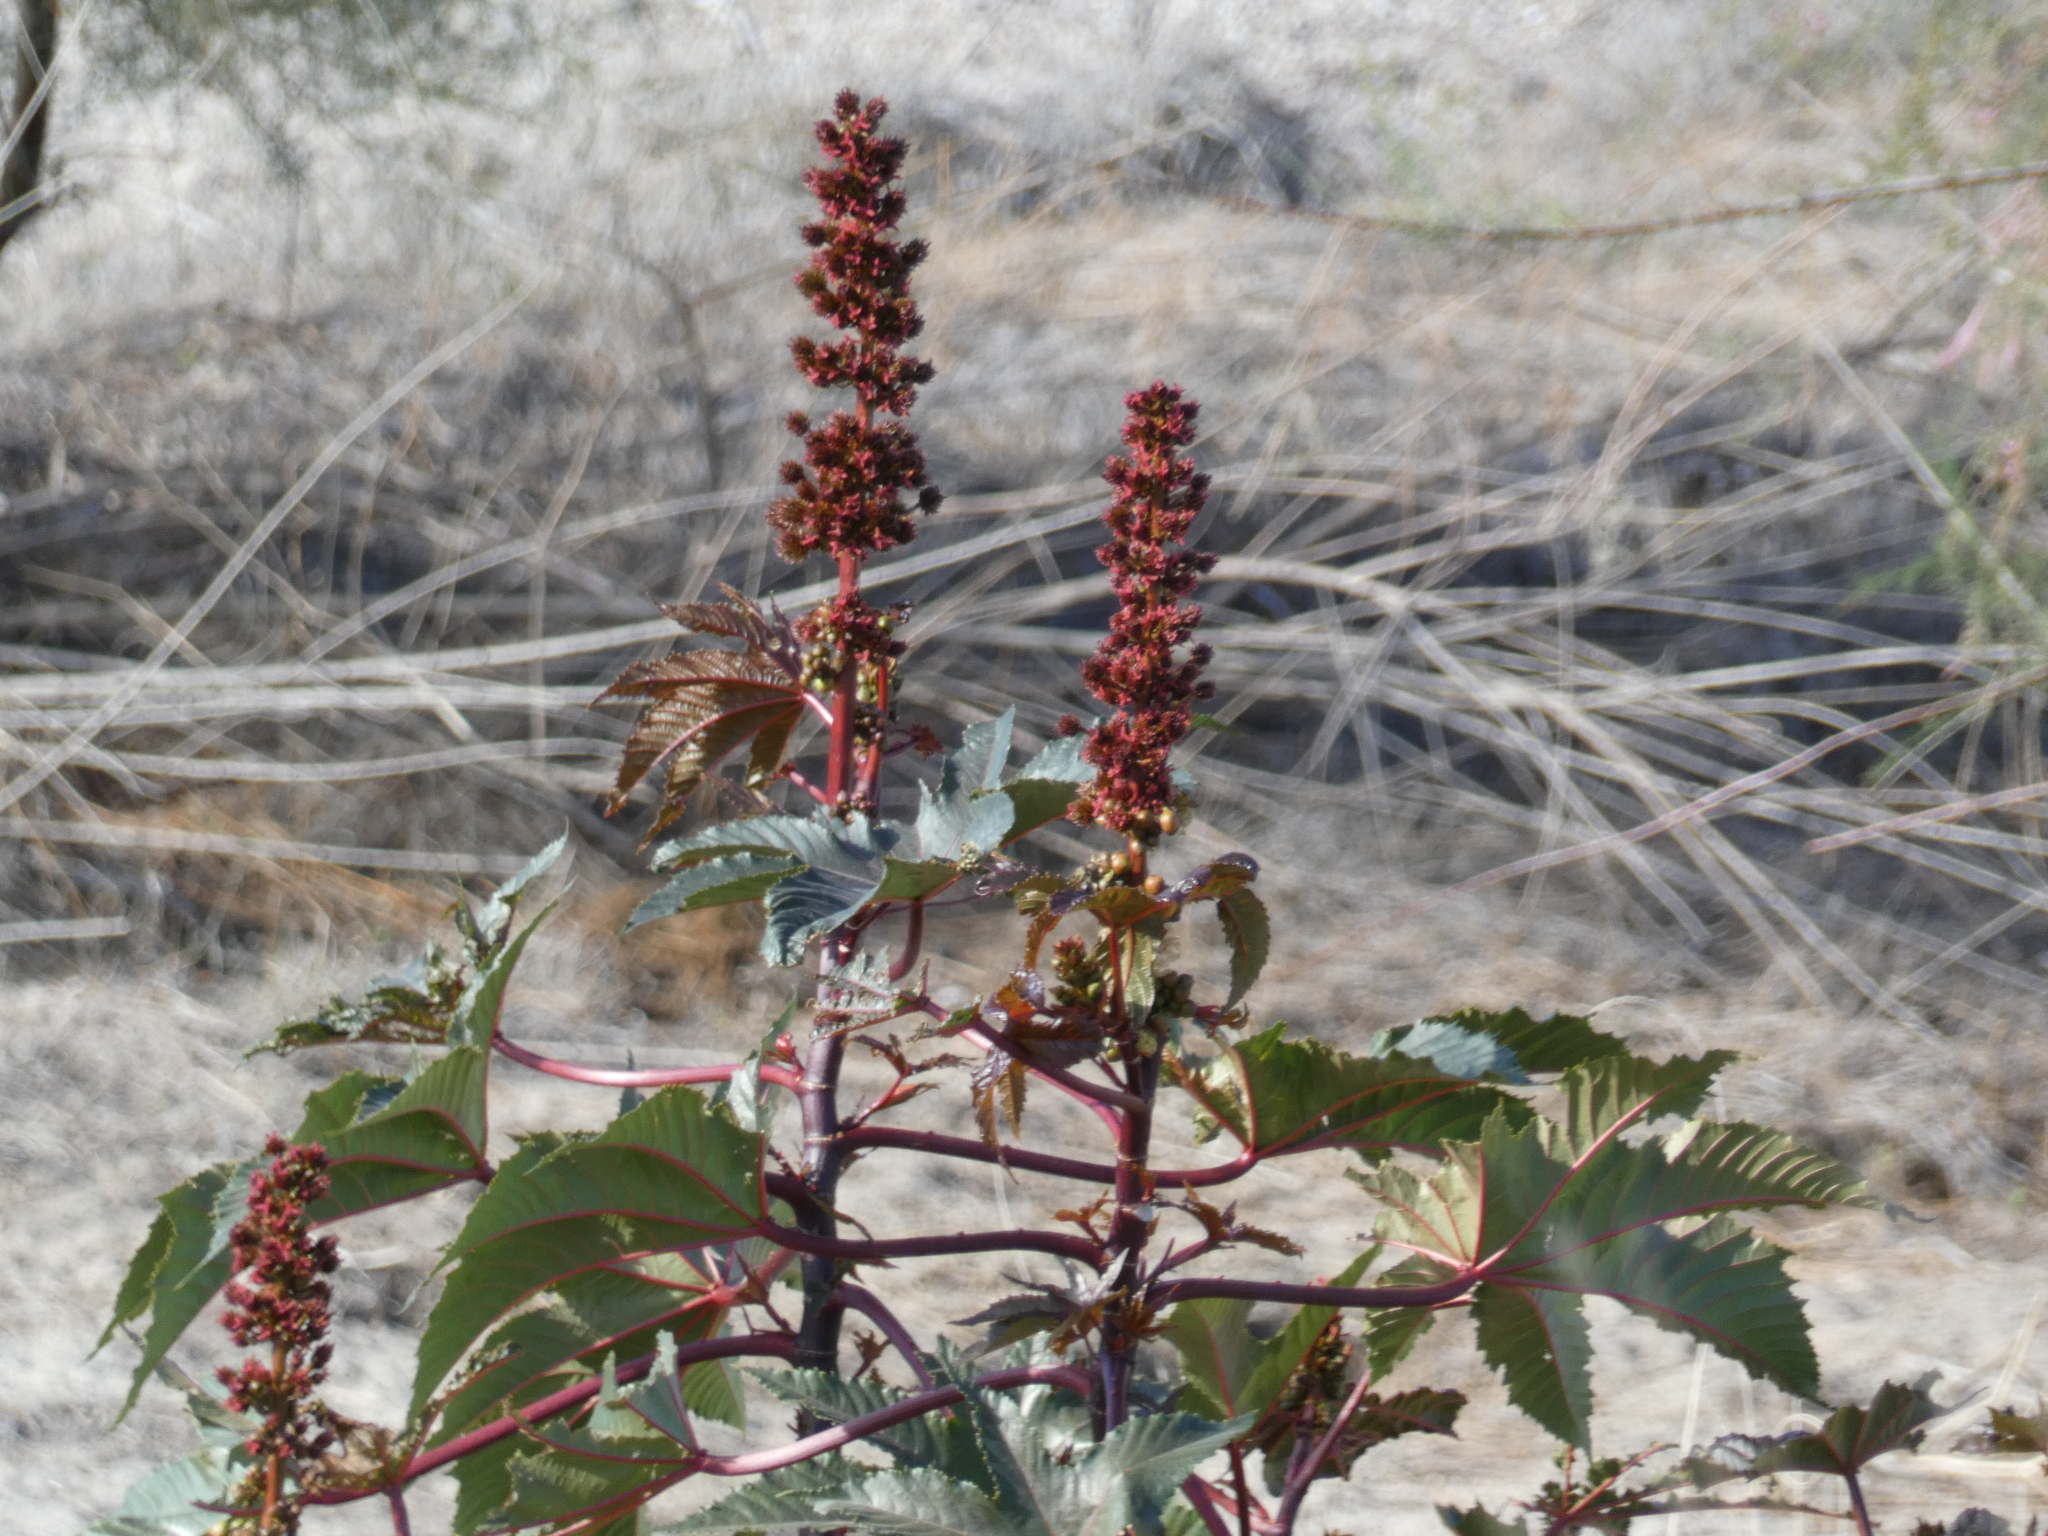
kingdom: Plantae
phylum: Tracheophyta
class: Magnoliopsida
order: Malpighiales
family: Euphorbiaceae
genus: Ricinus
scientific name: Ricinus communis
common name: Castor-oil-plant
